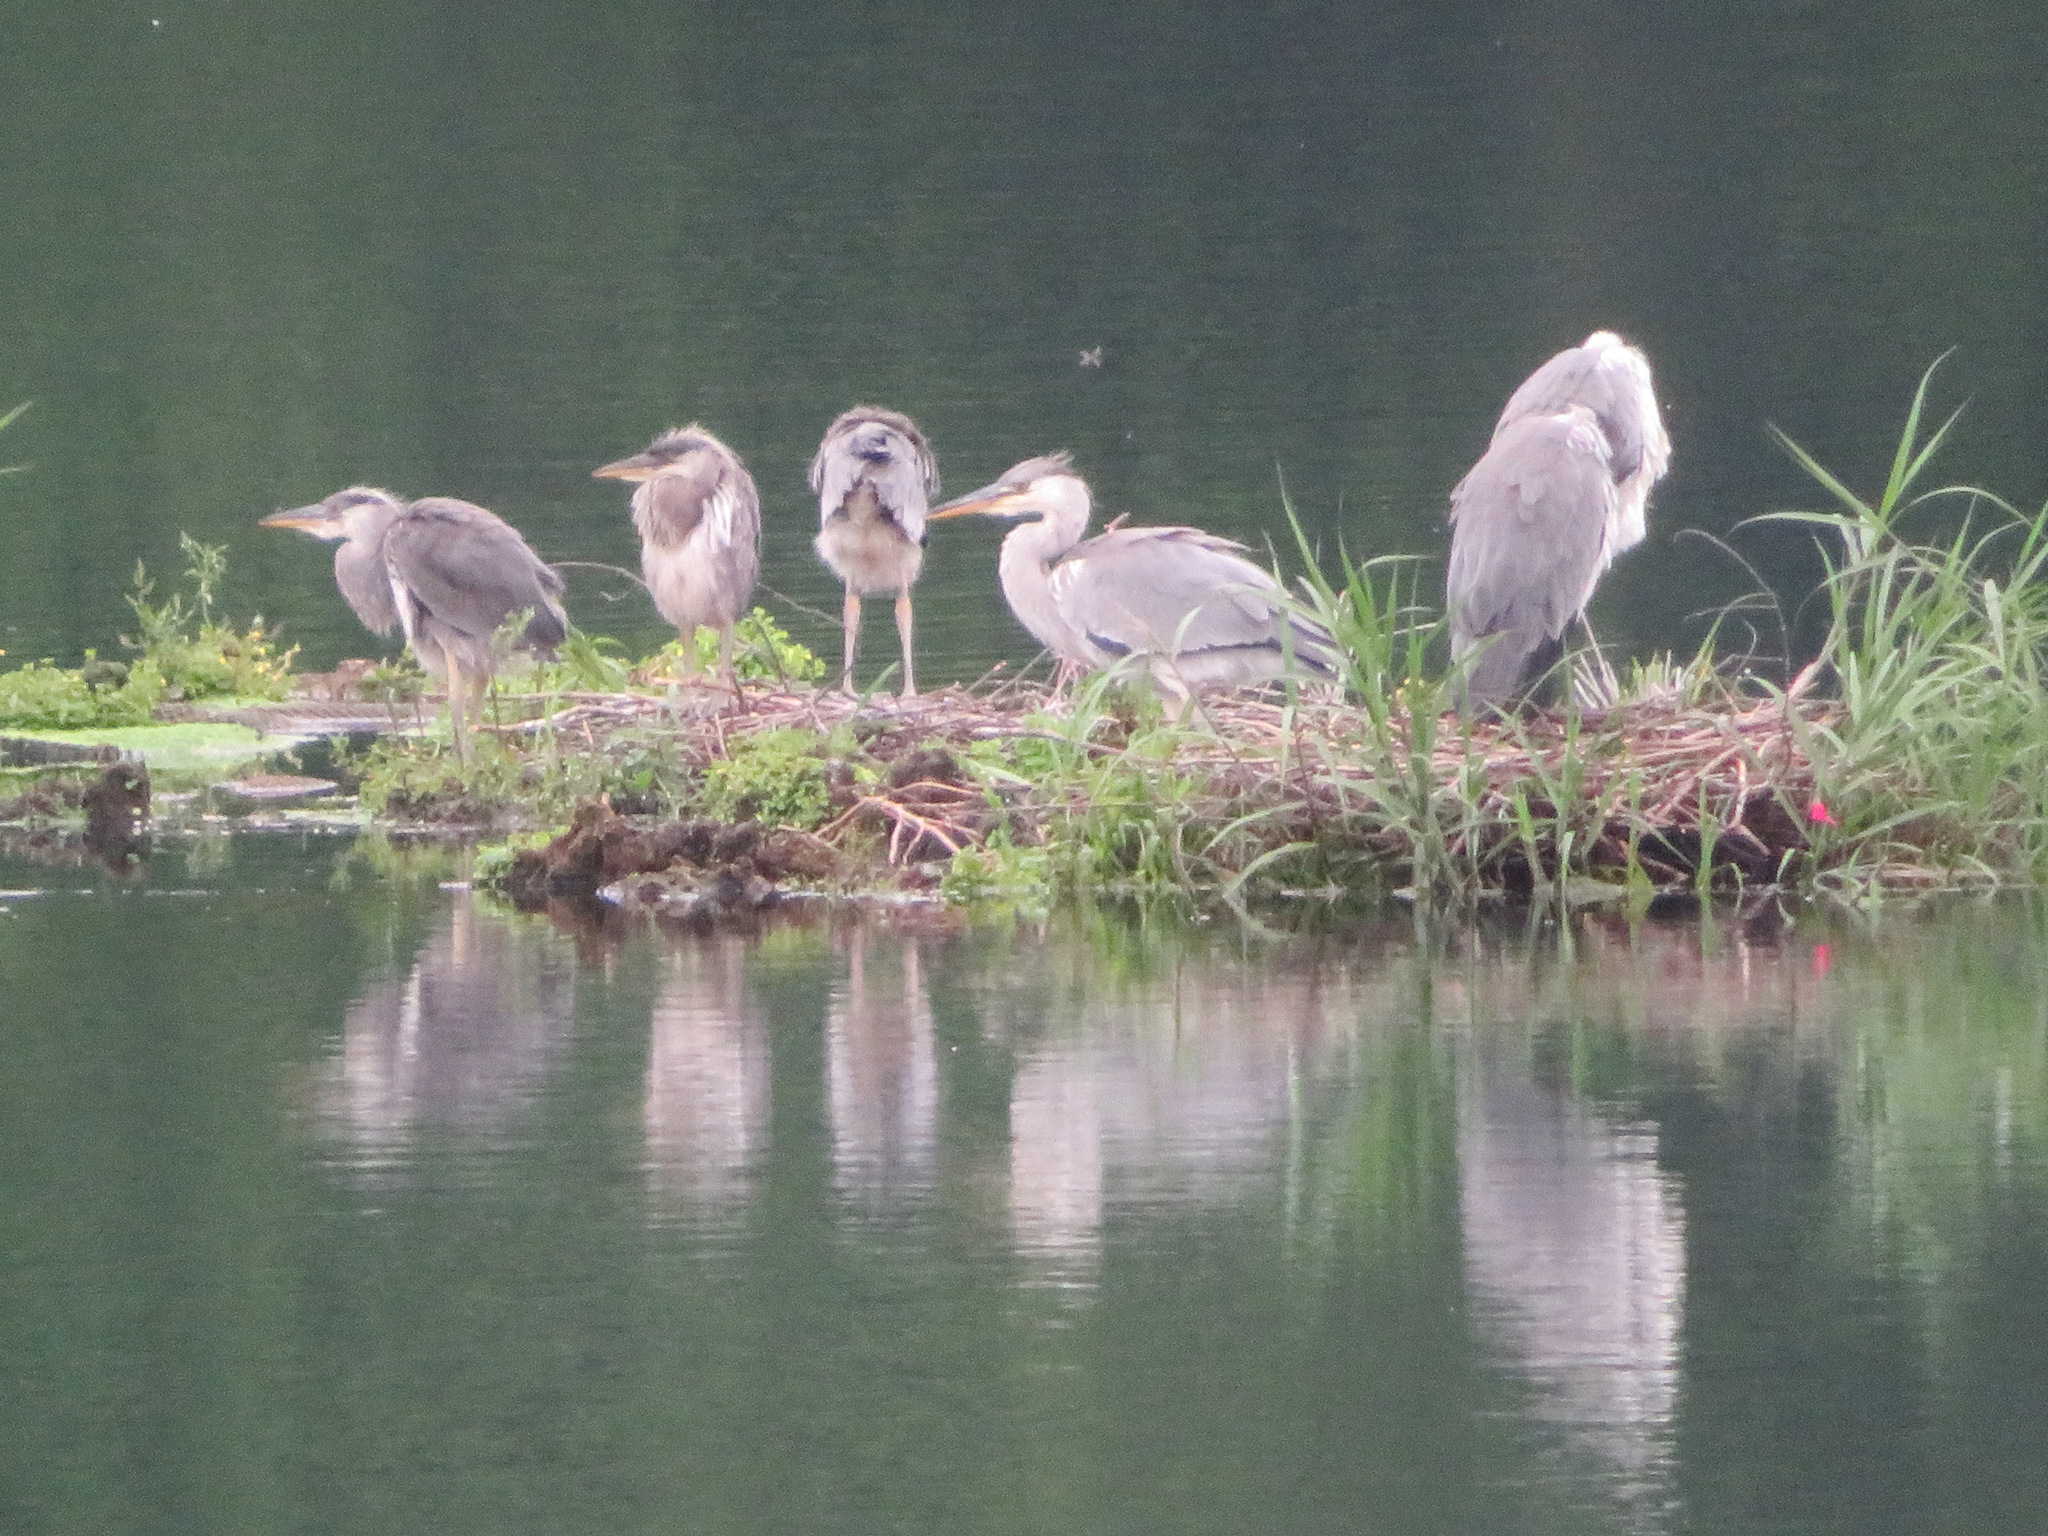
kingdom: Animalia
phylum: Chordata
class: Aves
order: Pelecaniformes
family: Ardeidae
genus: Ardea
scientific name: Ardea cinerea
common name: Grey heron
